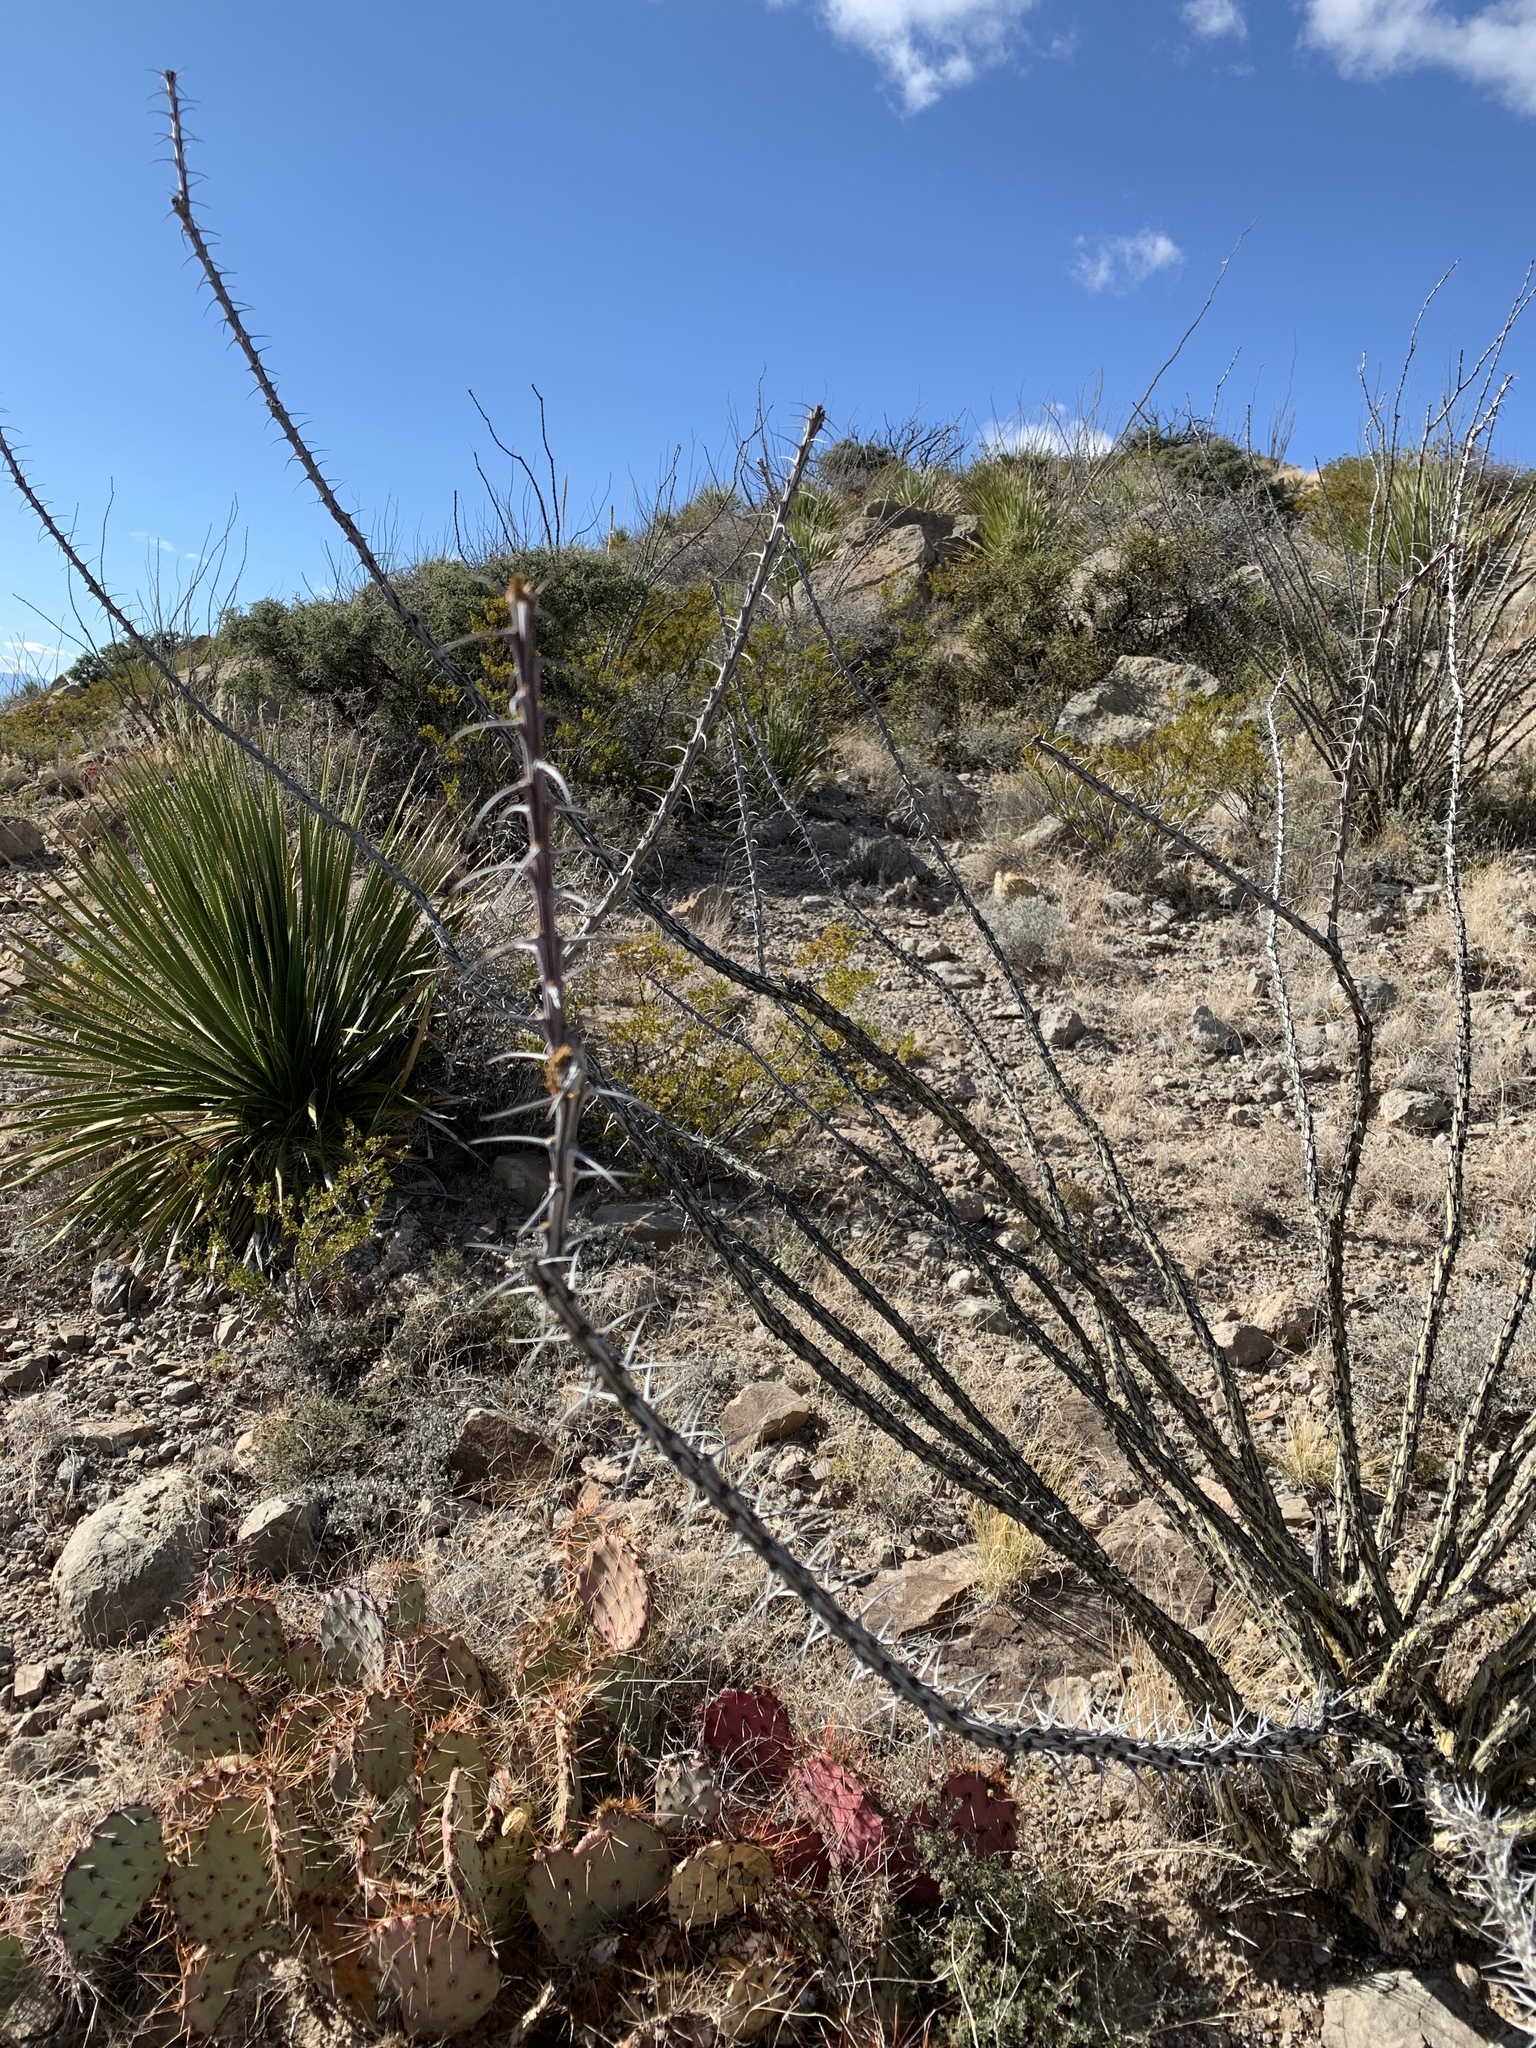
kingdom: Plantae
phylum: Tracheophyta
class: Magnoliopsida
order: Ericales
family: Fouquieriaceae
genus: Fouquieria
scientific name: Fouquieria splendens
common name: Vine-cactus
